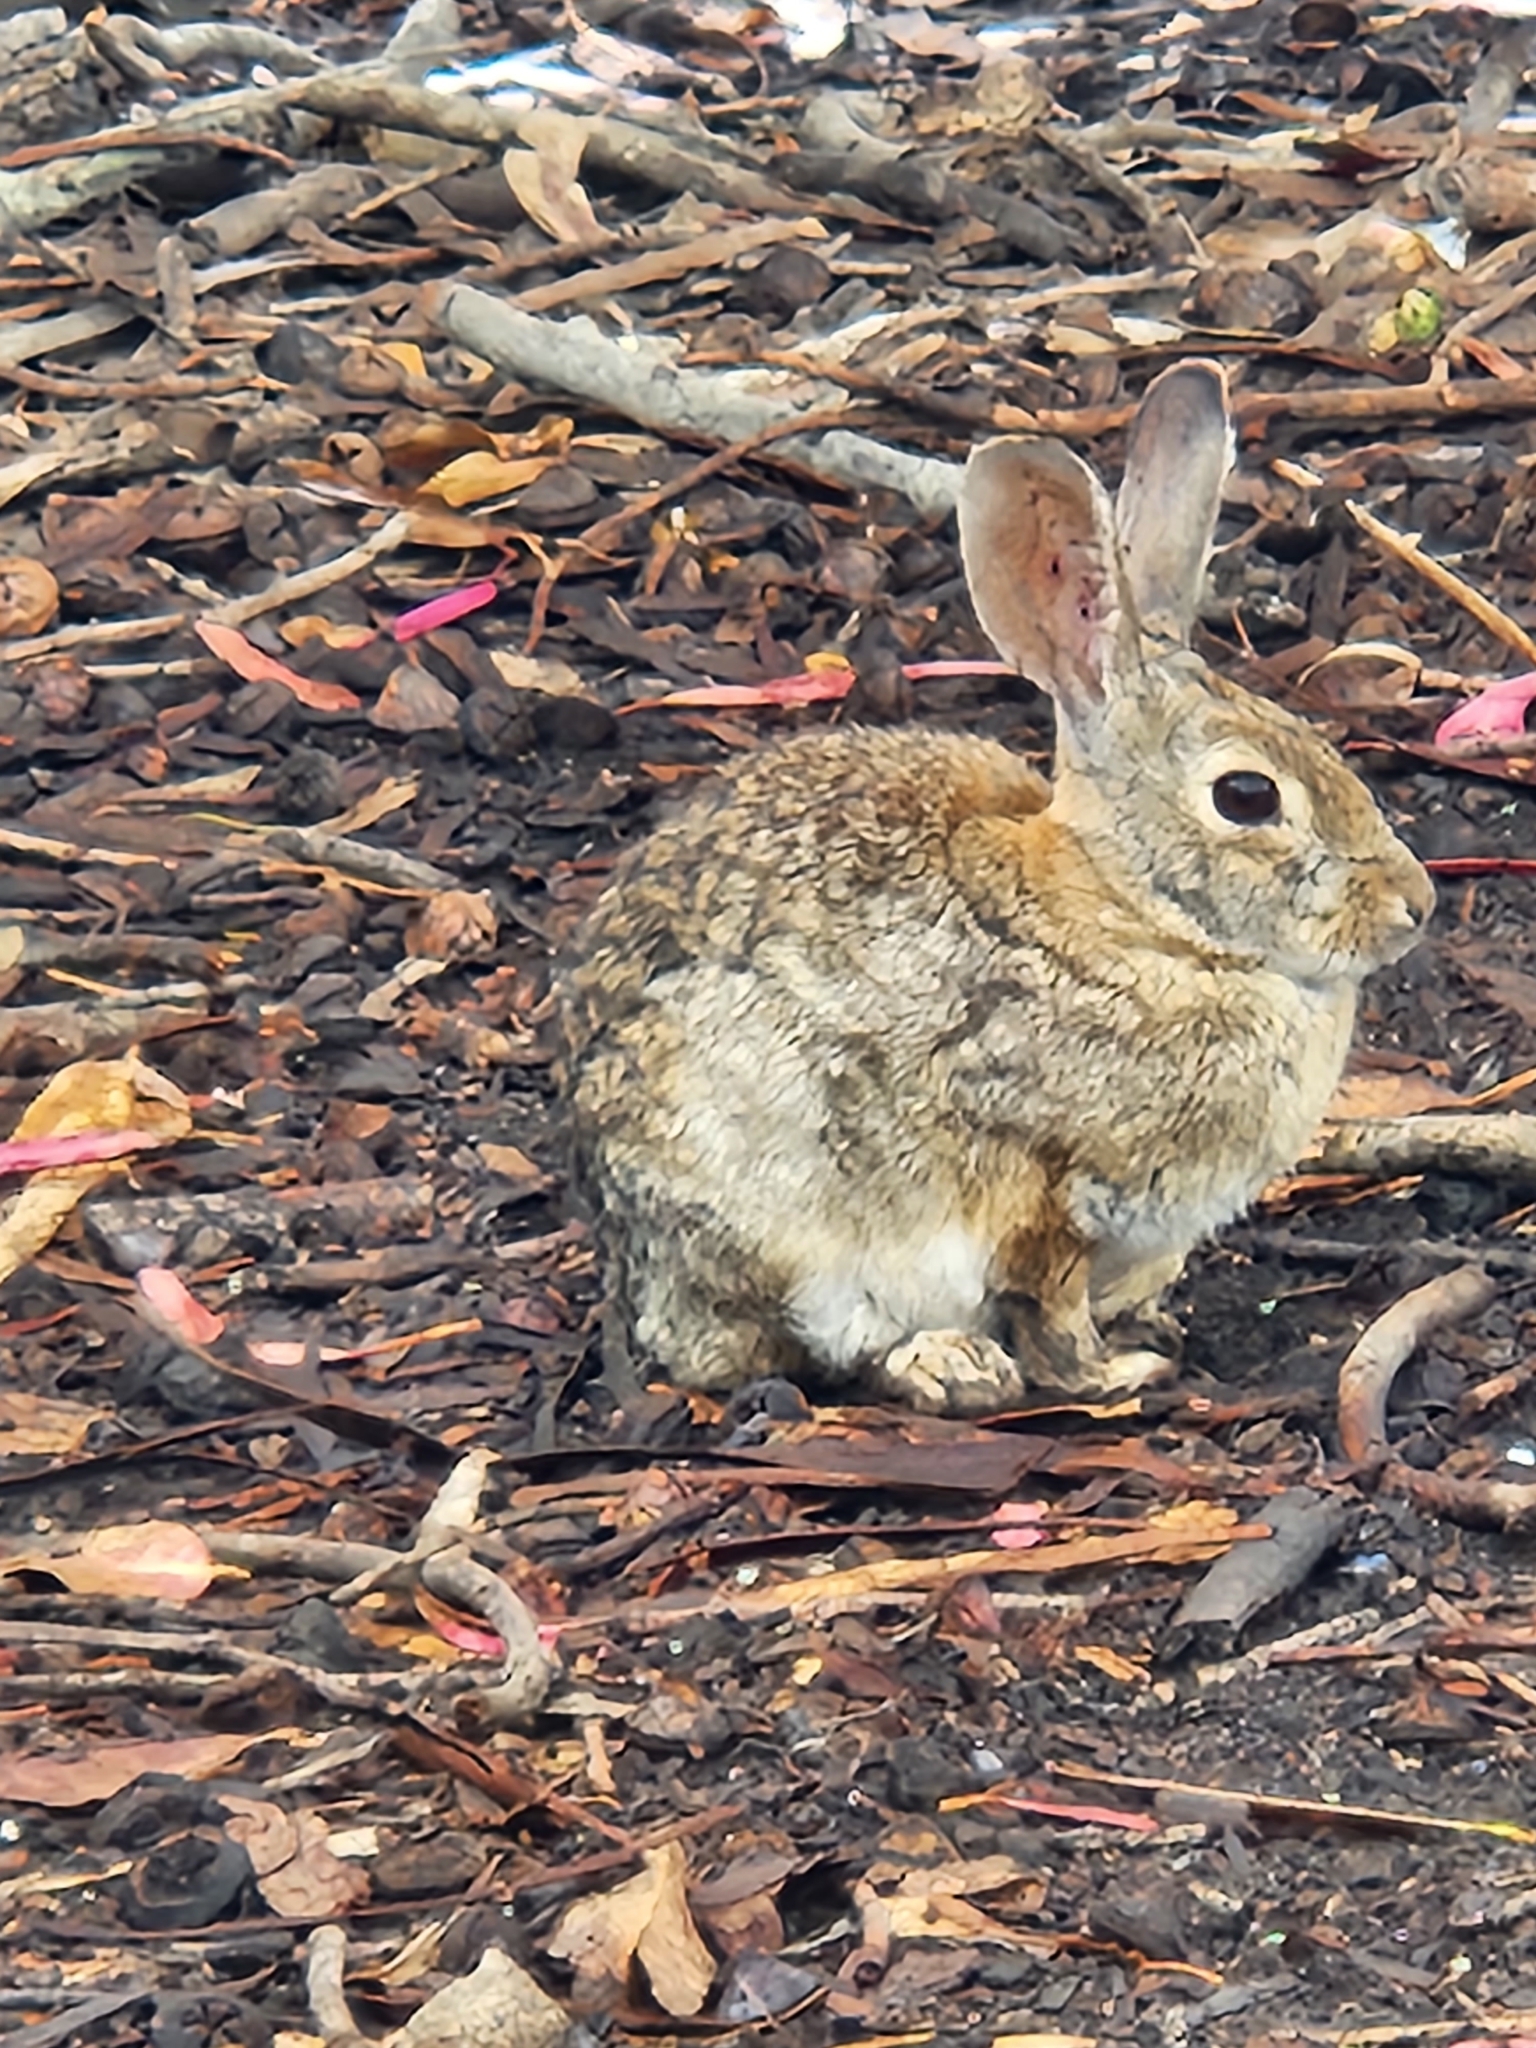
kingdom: Animalia
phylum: Chordata
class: Mammalia
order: Lagomorpha
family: Leporidae
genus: Sylvilagus
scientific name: Sylvilagus audubonii
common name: Desert cottontail
